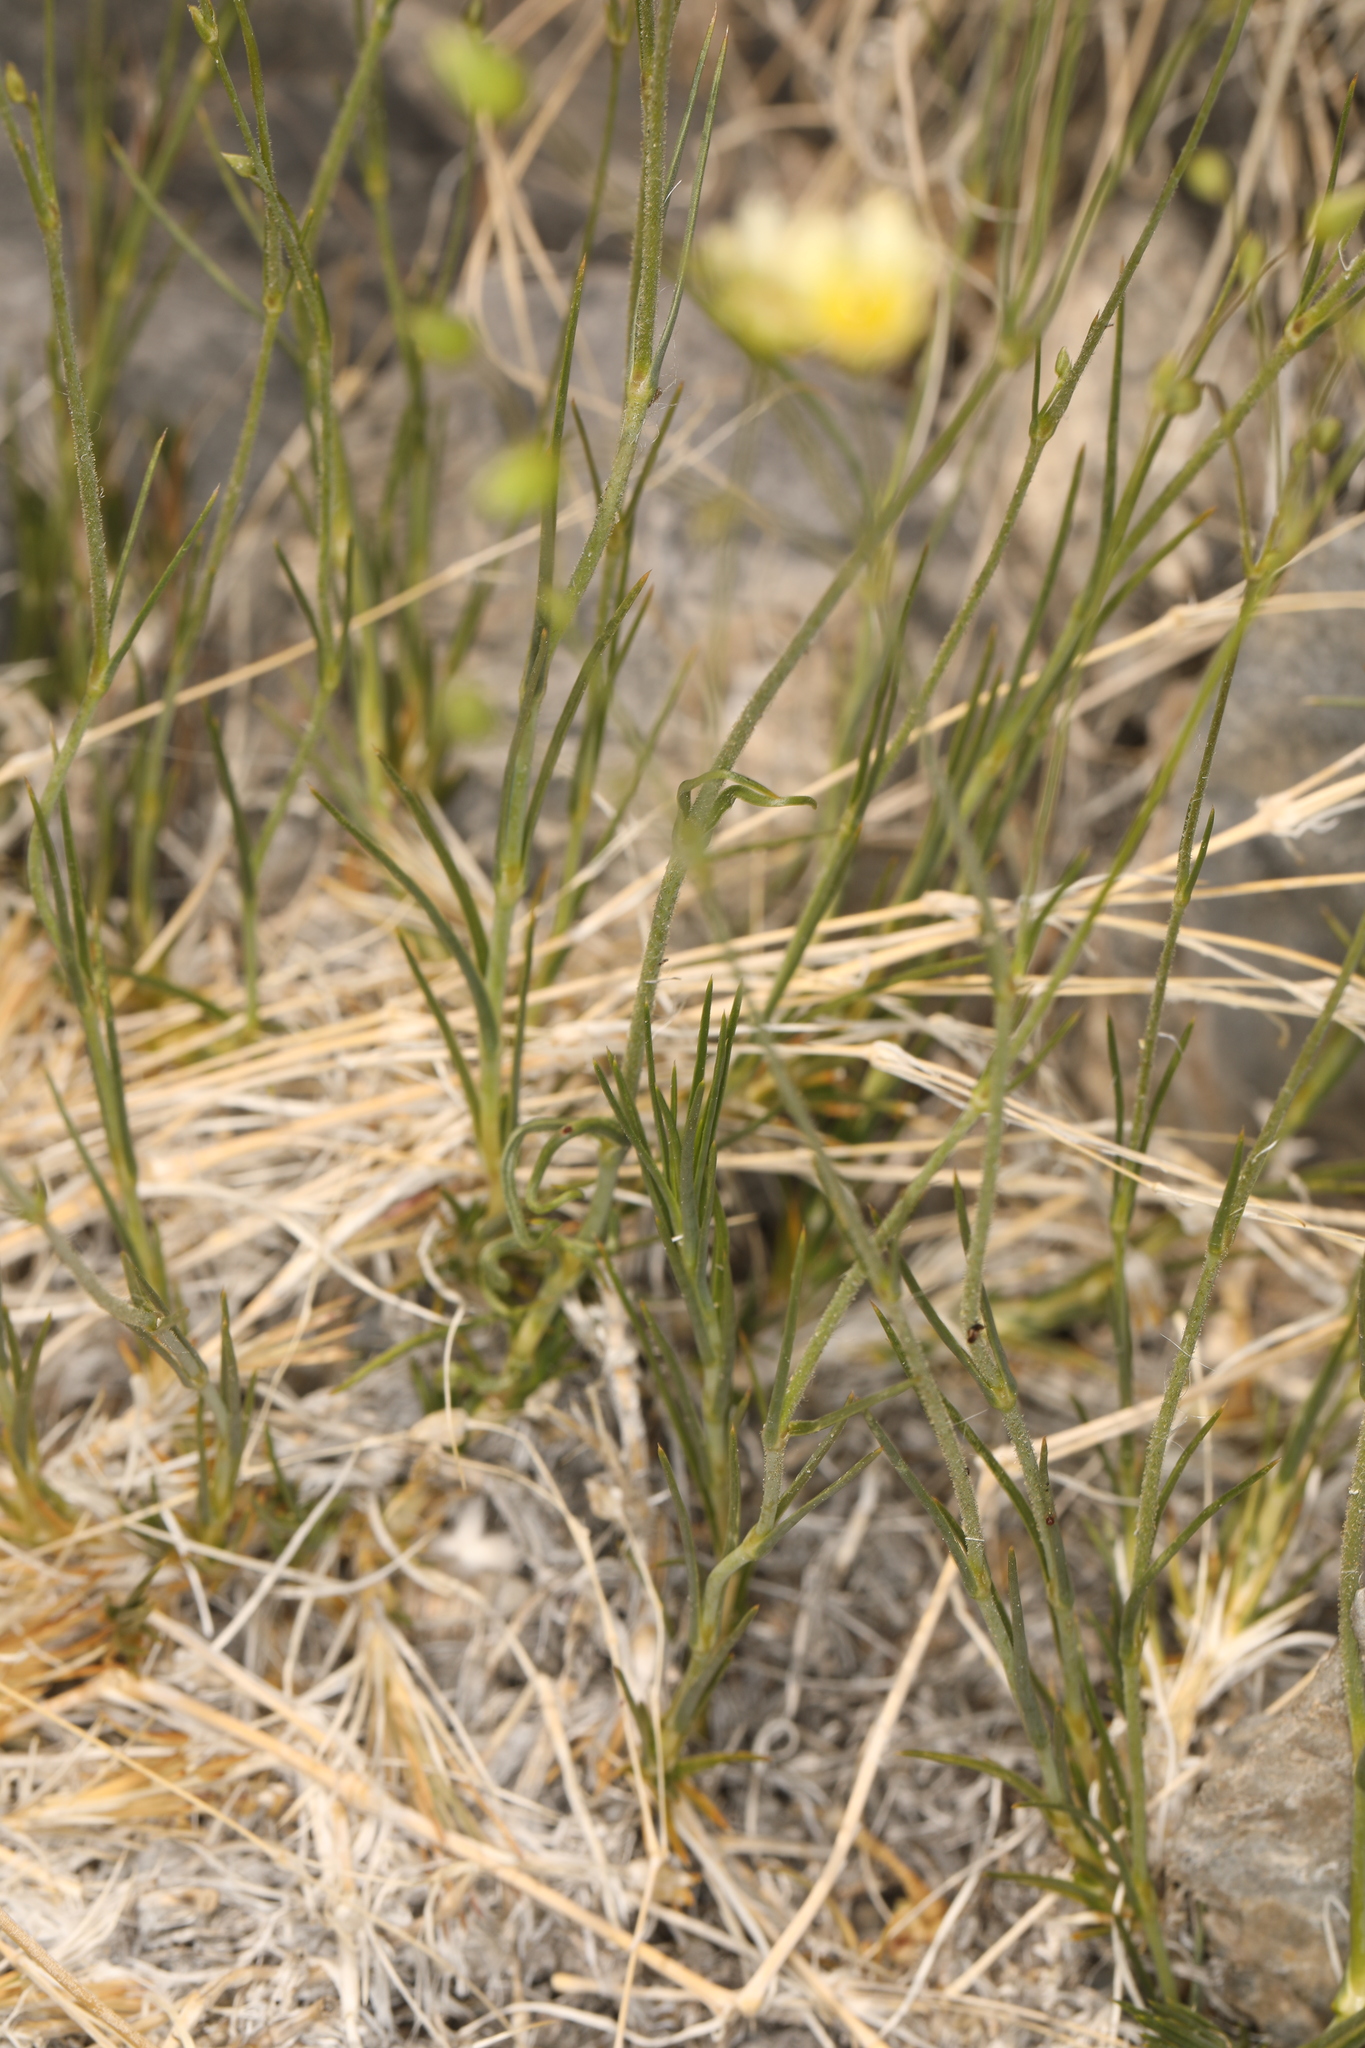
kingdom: Plantae
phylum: Tracheophyta
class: Magnoliopsida
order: Caryophyllales
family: Caryophyllaceae
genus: Eremogone
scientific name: Eremogone macradenia
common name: Mohave sandwort
